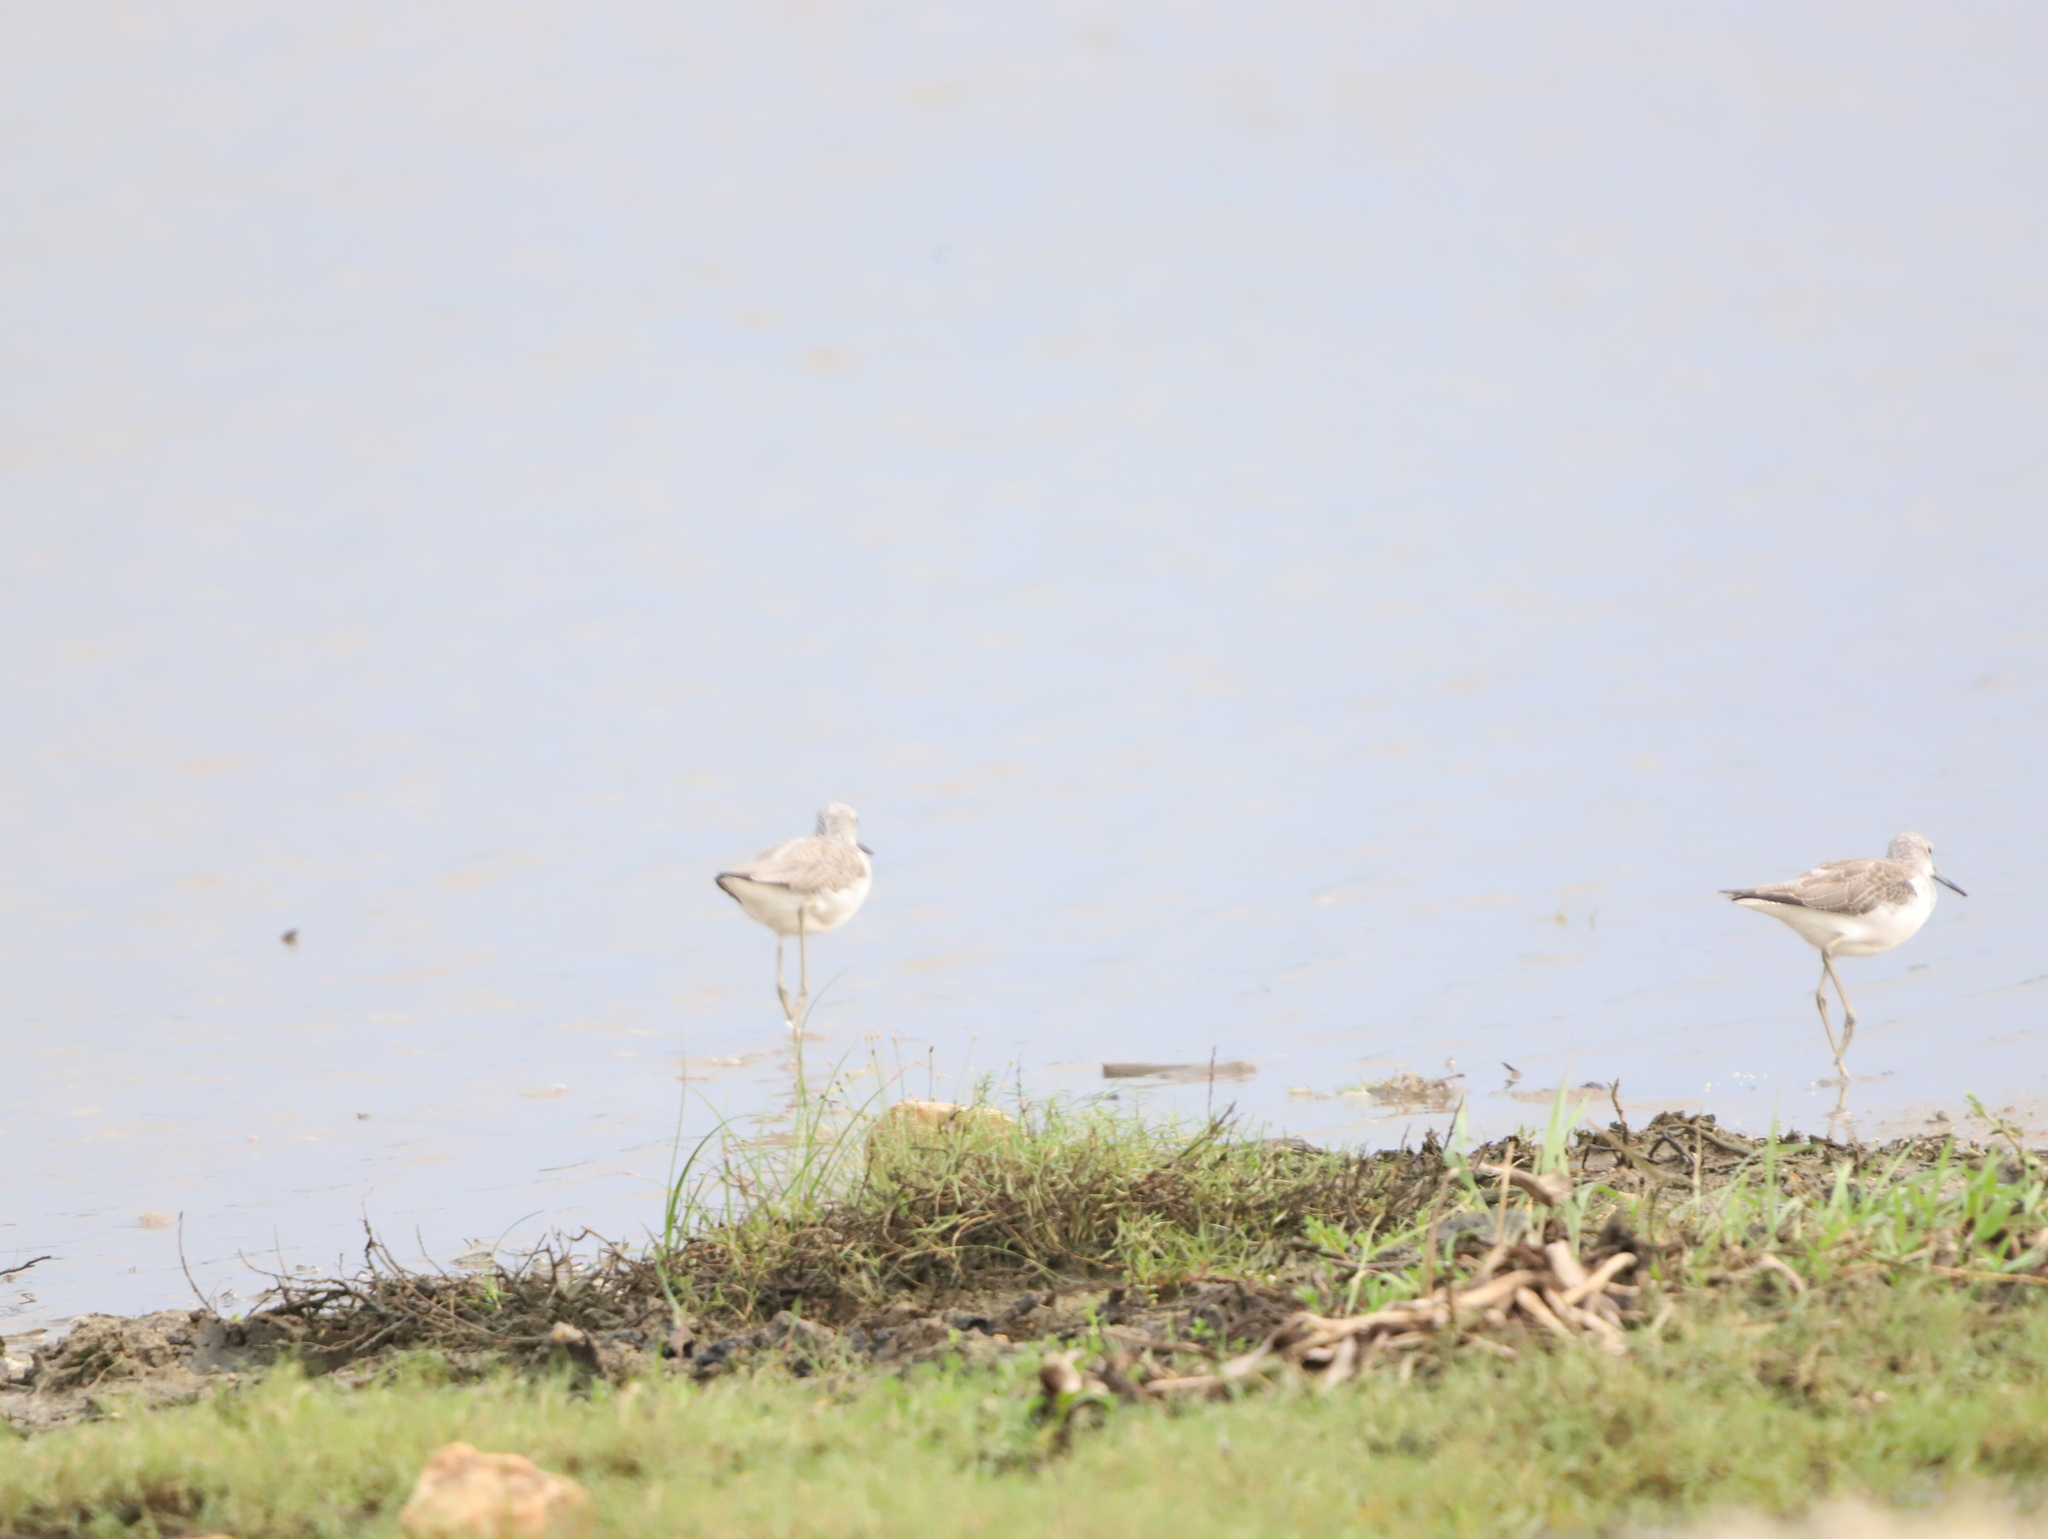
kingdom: Animalia
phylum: Chordata
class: Aves
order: Charadriiformes
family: Scolopacidae
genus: Tringa
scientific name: Tringa nebularia
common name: Common greenshank
